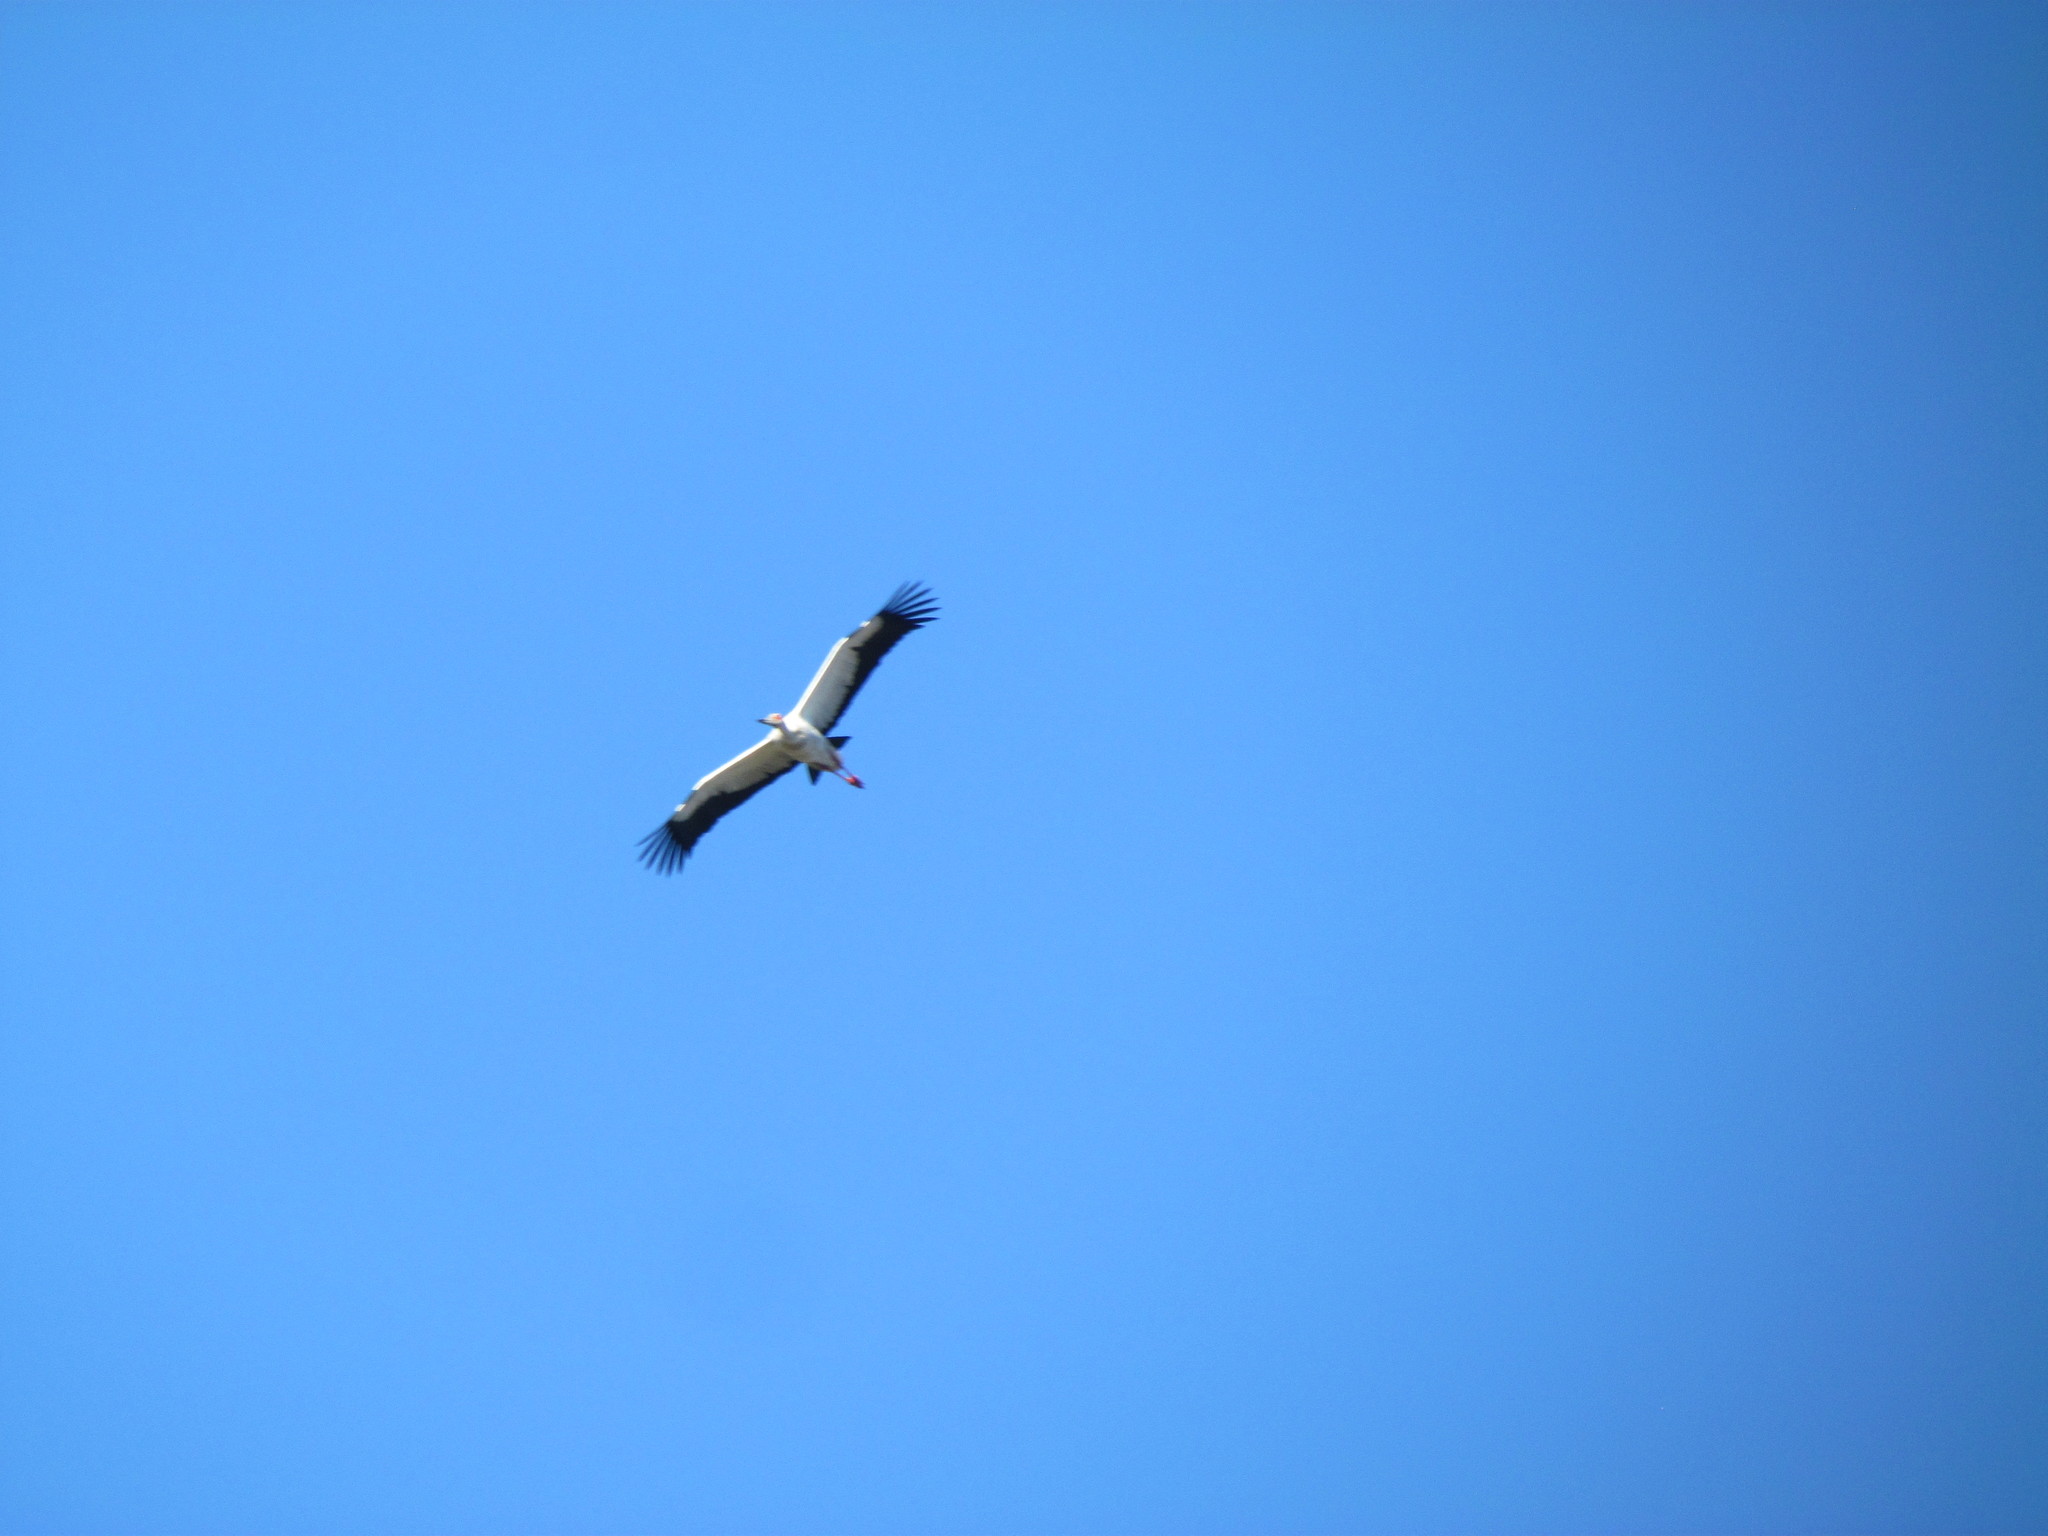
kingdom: Animalia
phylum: Chordata
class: Aves
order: Ciconiiformes
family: Ciconiidae
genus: Ciconia
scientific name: Ciconia maguari
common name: Maguari stork
